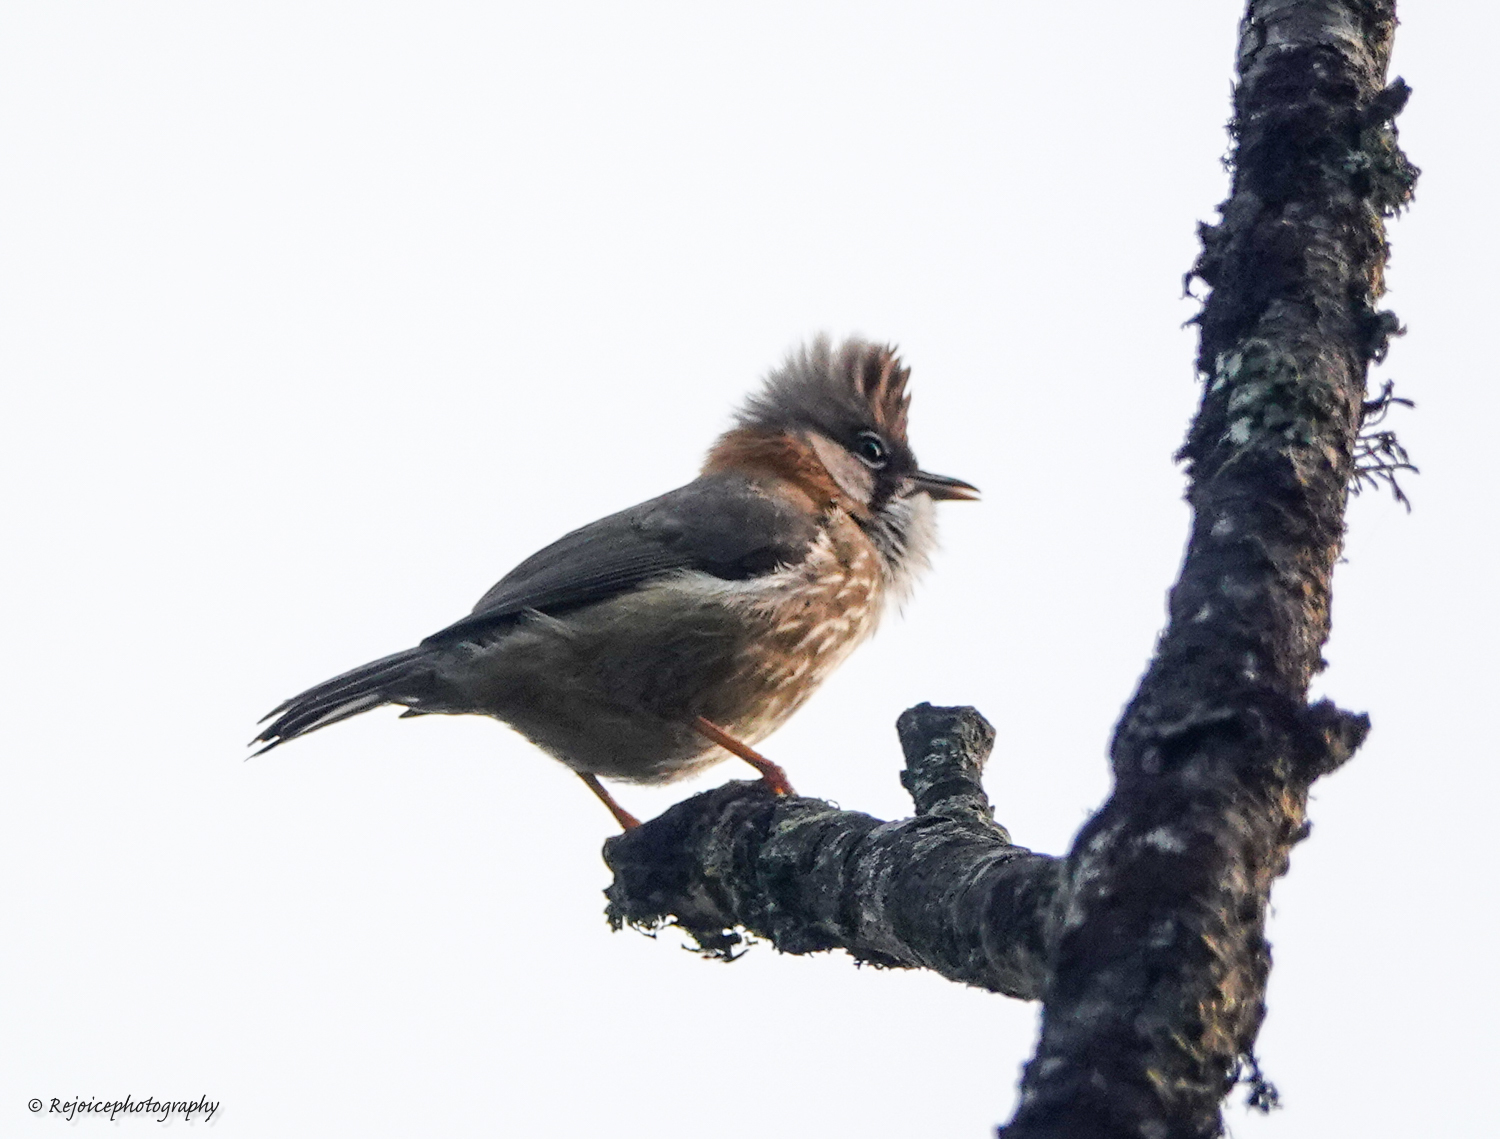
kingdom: Animalia
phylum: Chordata
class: Aves
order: Passeriformes
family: Zosteropidae
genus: Yuhina
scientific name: Yuhina flavicollis
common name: Whiskered yuhina
